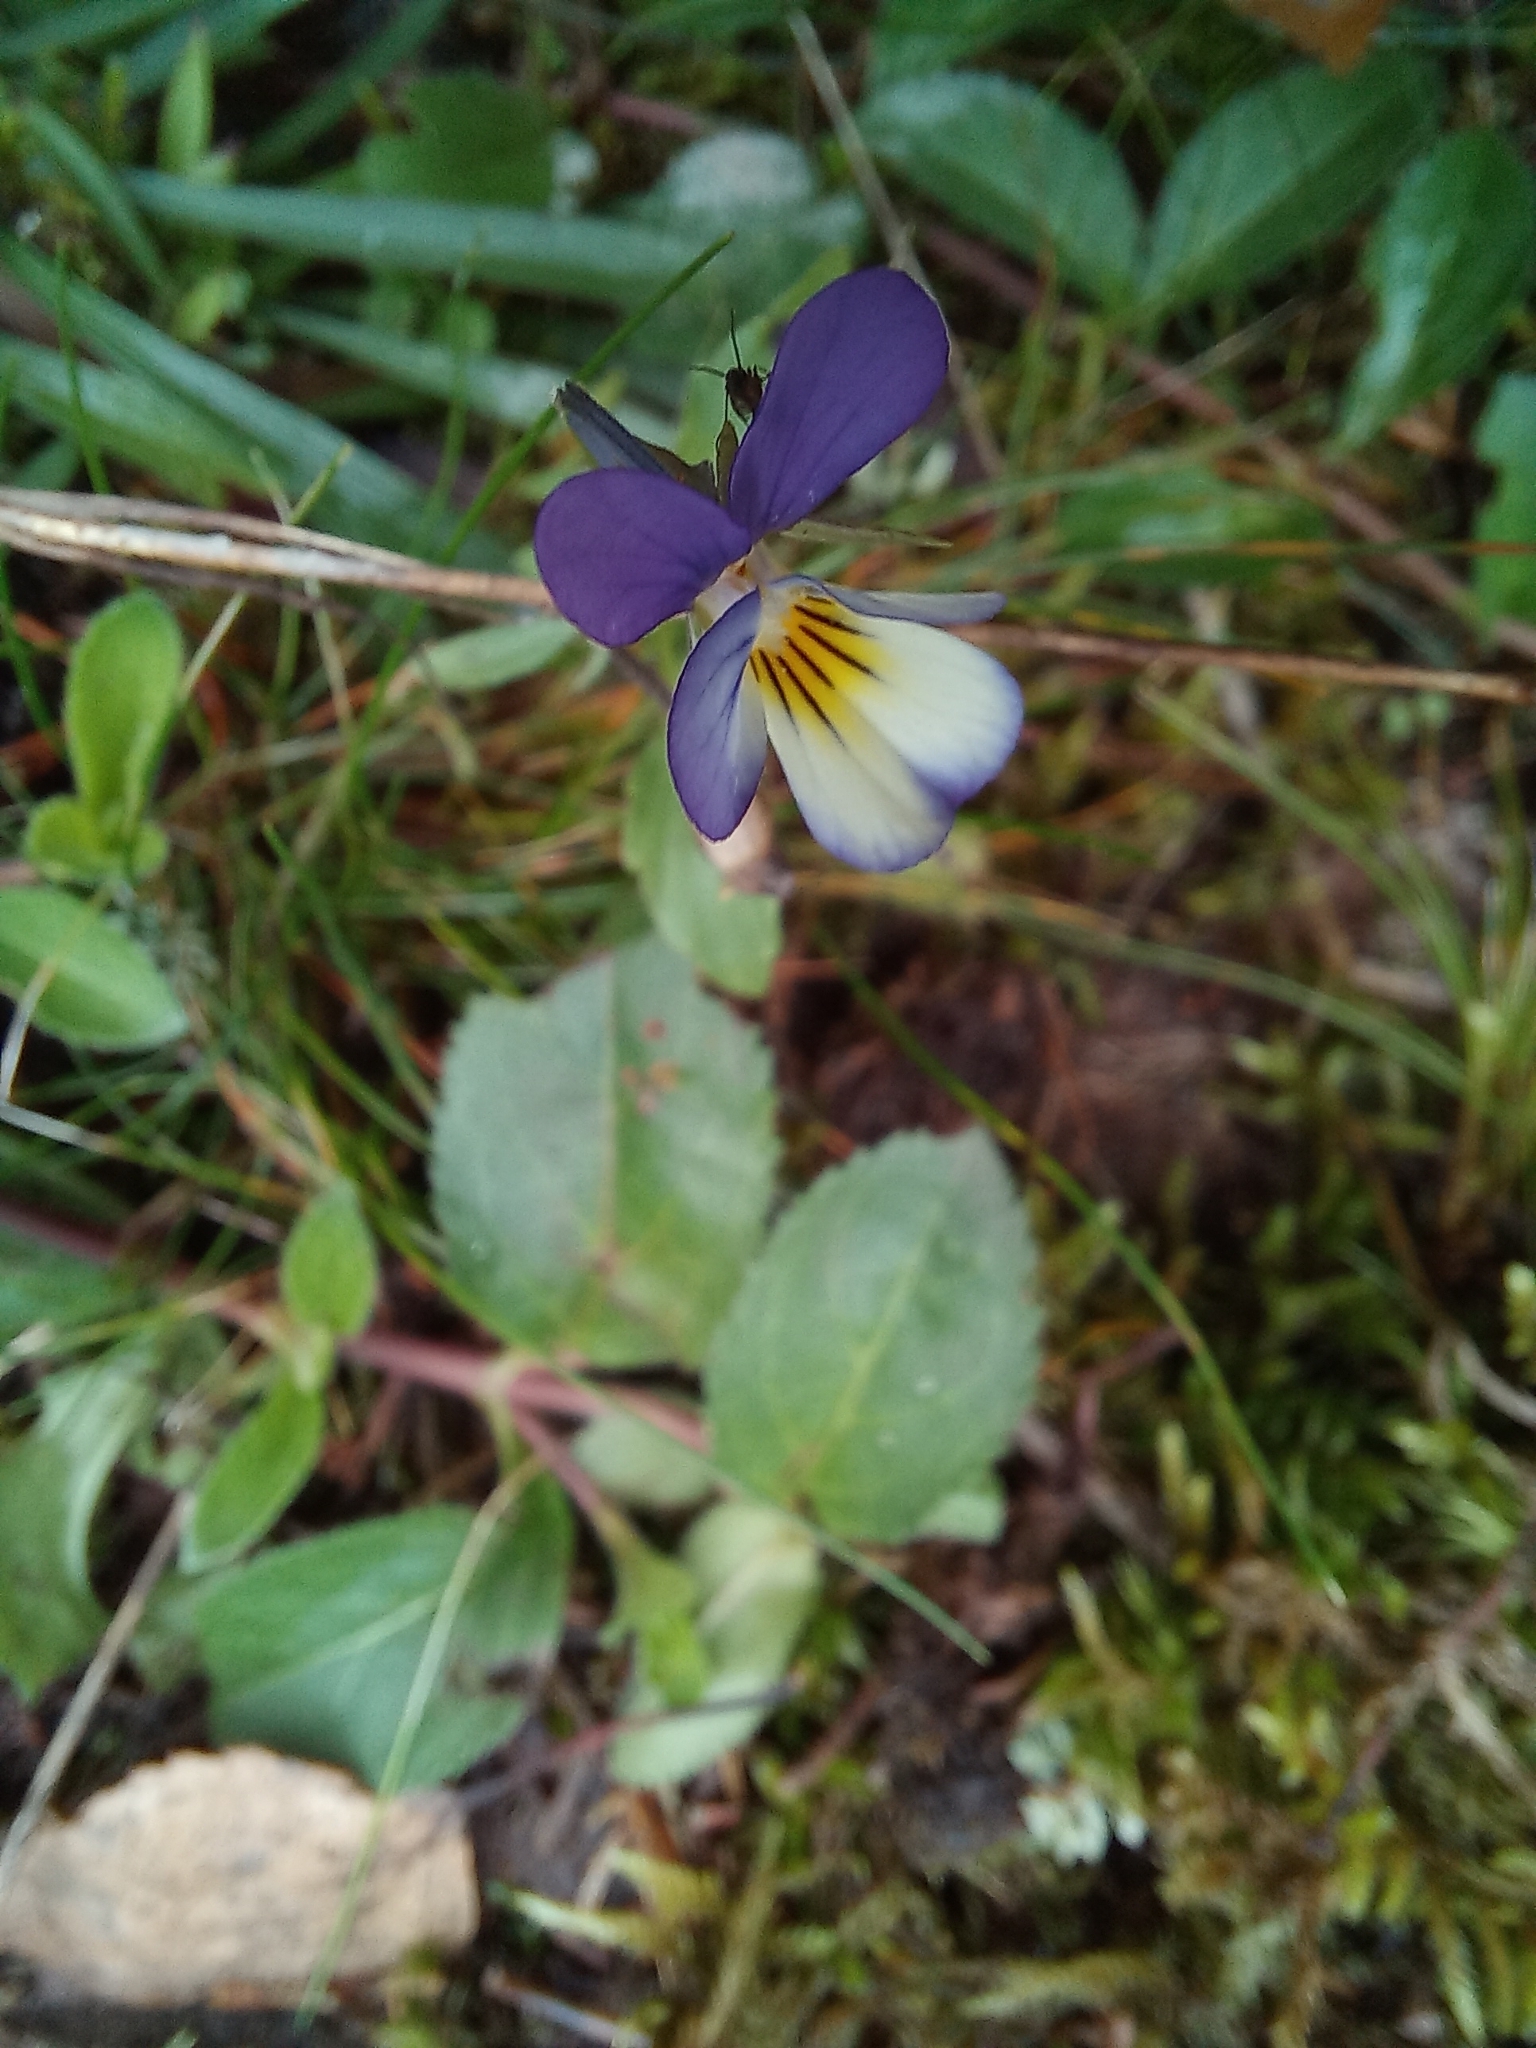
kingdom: Plantae
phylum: Tracheophyta
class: Magnoliopsida
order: Malpighiales
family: Violaceae
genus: Viola
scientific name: Viola tricolor
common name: Pansy
